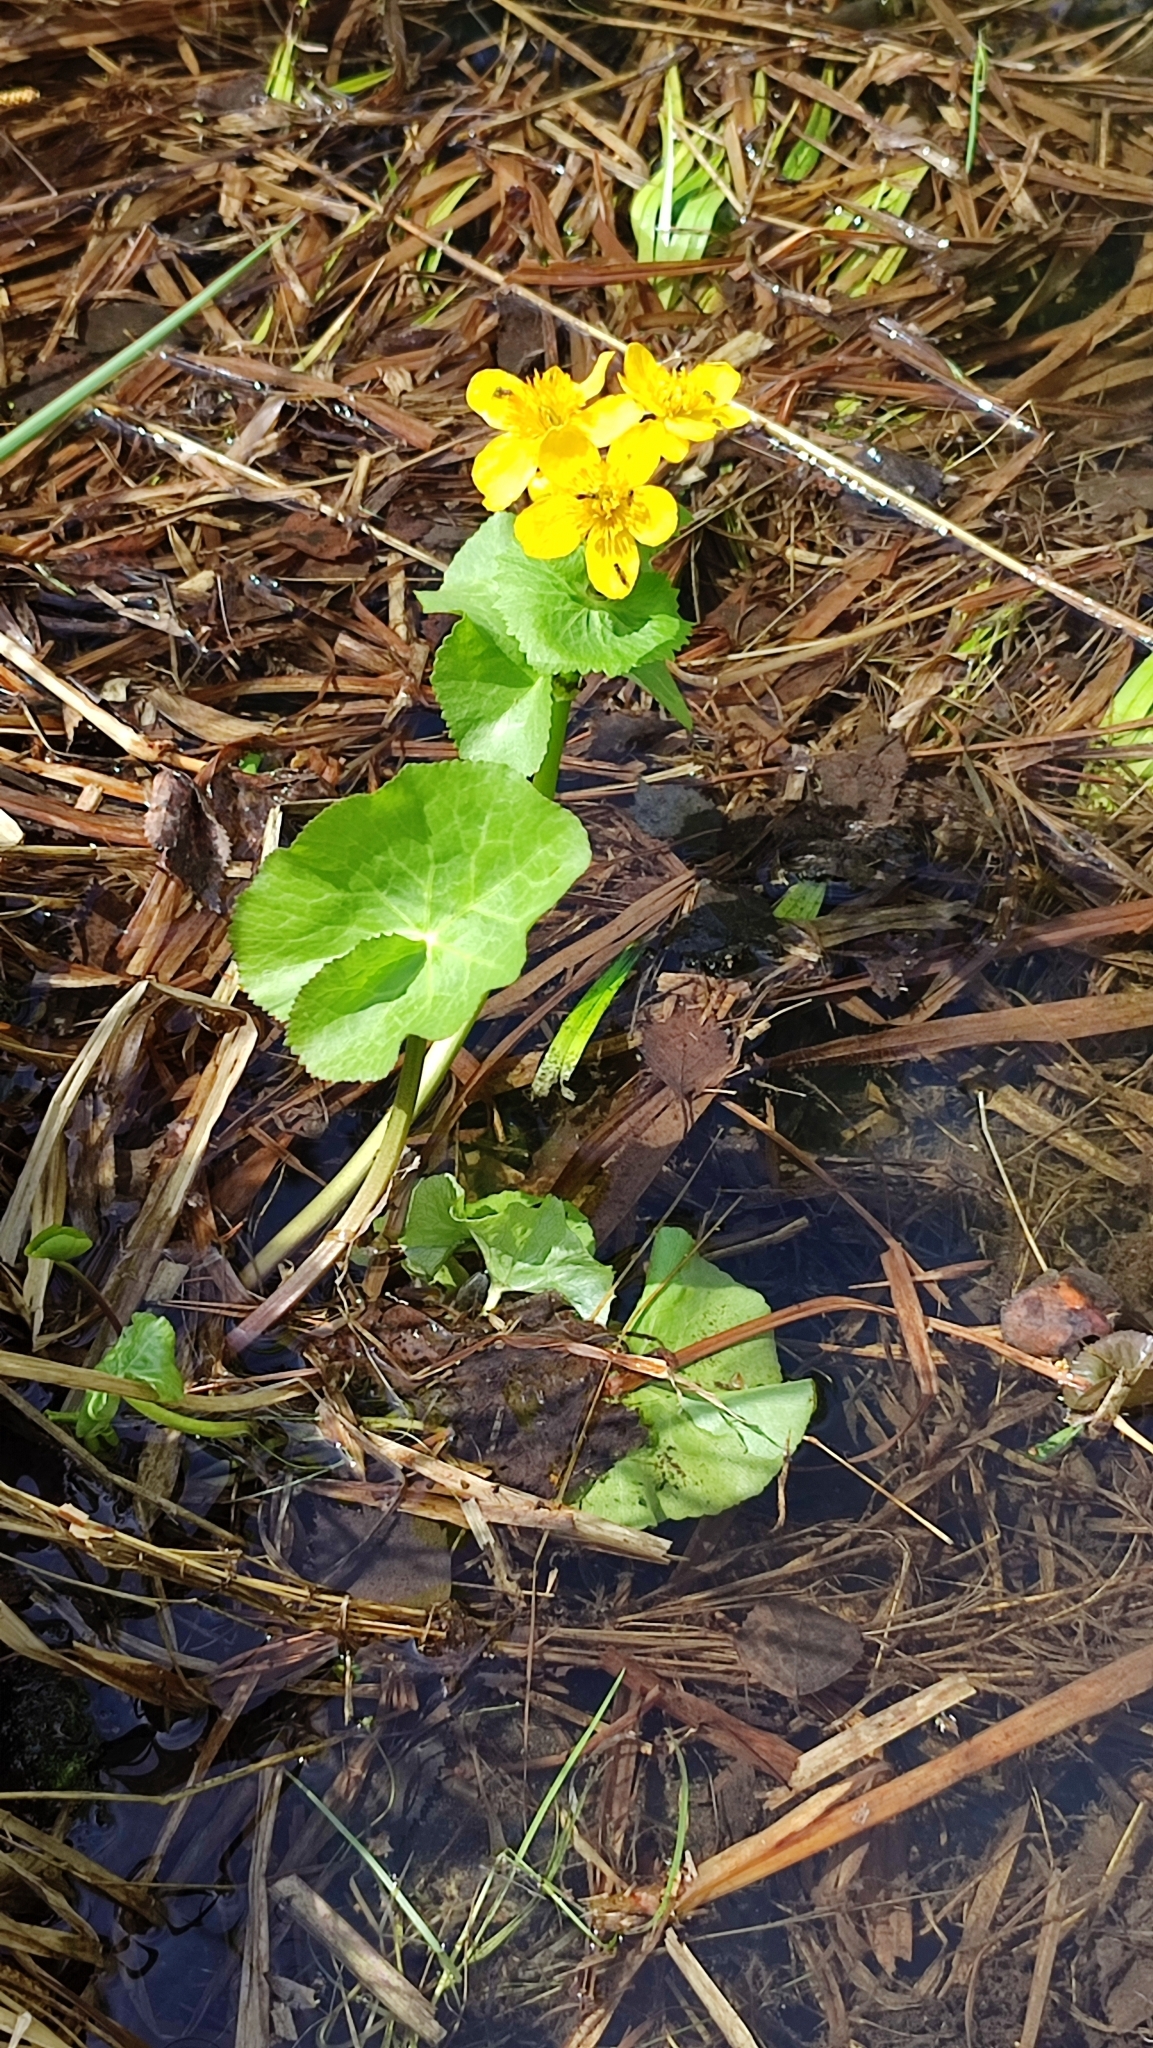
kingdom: Plantae
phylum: Tracheophyta
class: Magnoliopsida
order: Ranunculales
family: Ranunculaceae
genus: Caltha
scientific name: Caltha palustris
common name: Marsh marigold
